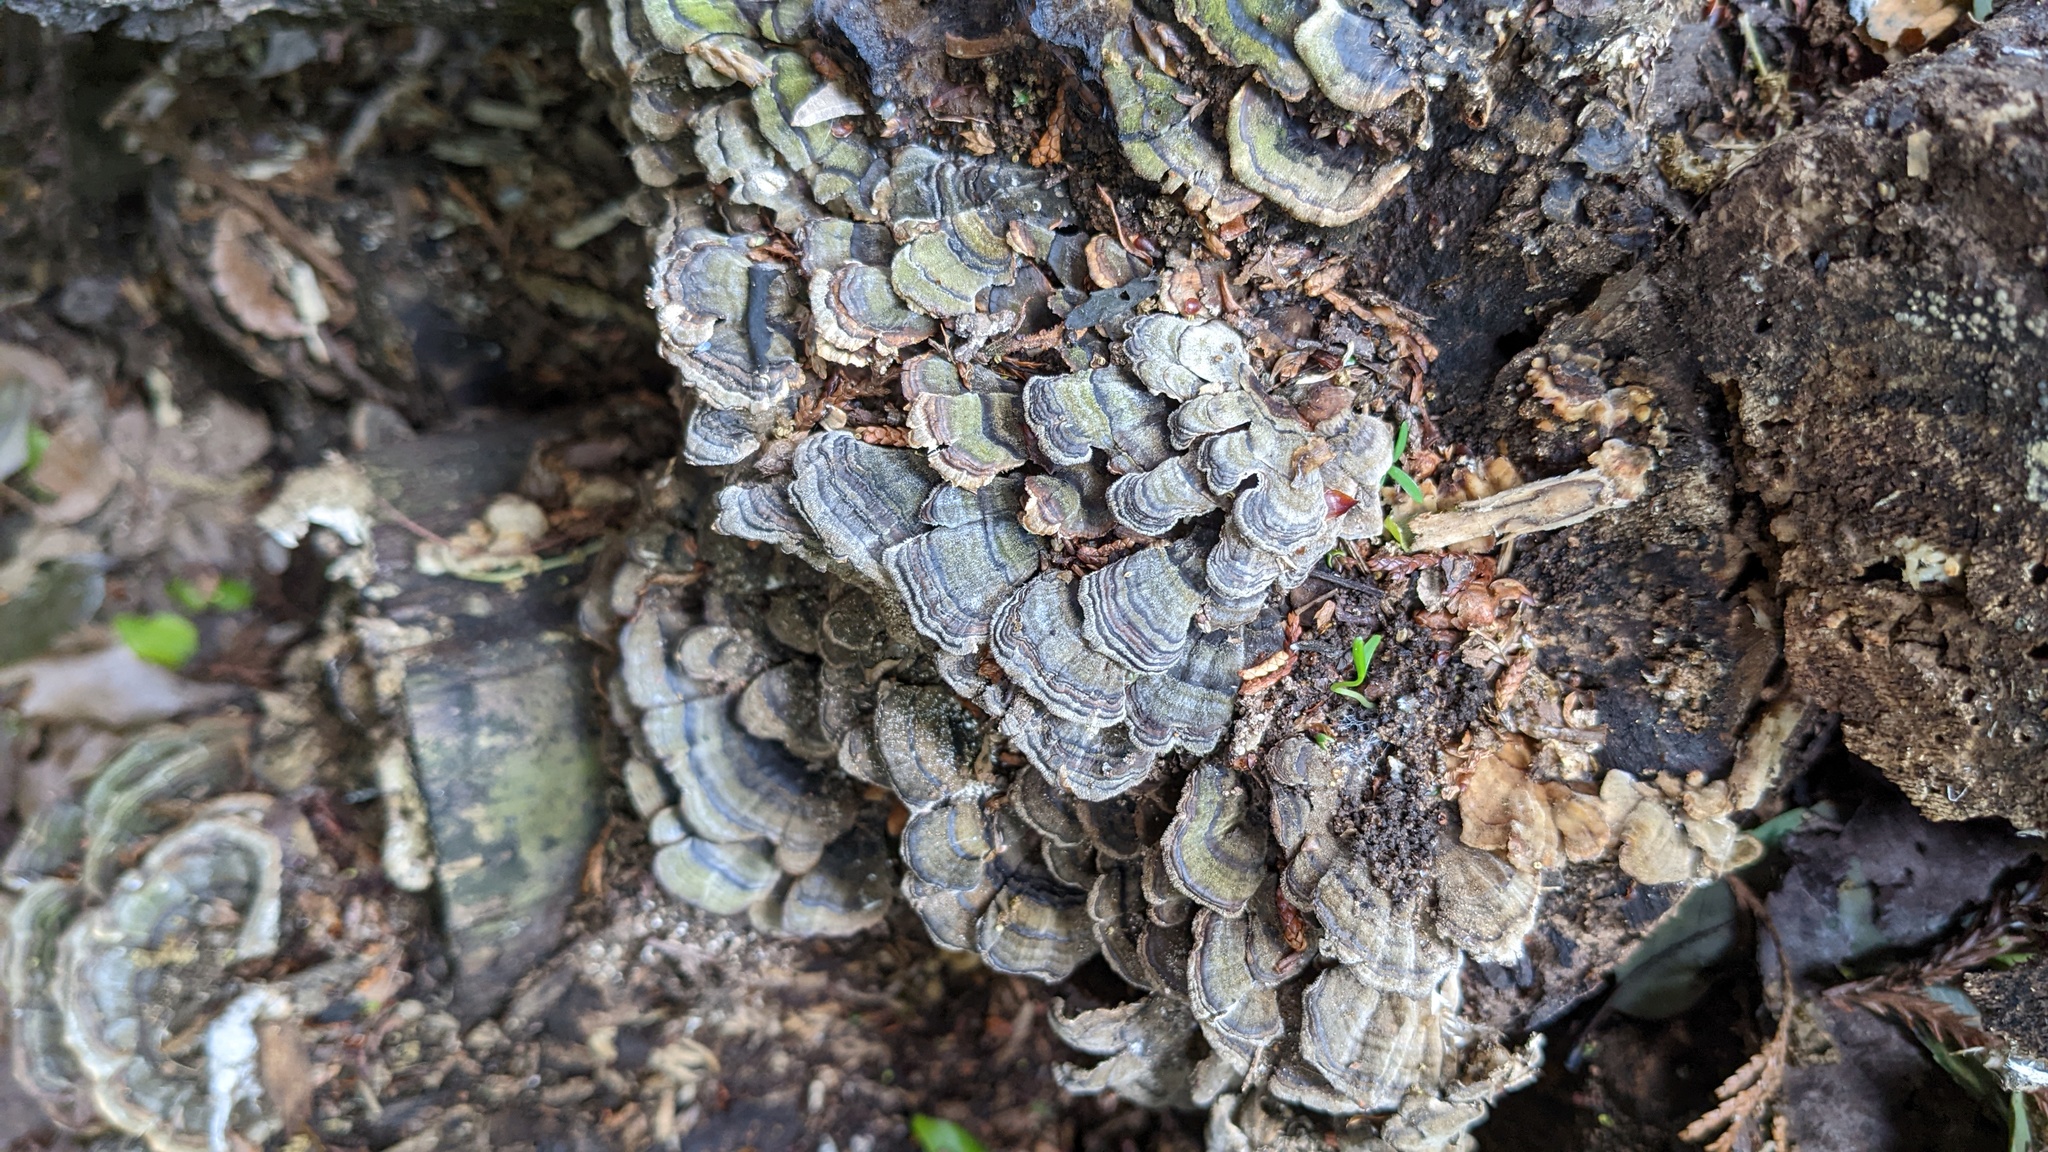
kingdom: Fungi
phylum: Basidiomycota
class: Agaricomycetes
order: Polyporales
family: Polyporaceae
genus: Trametes
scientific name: Trametes versicolor
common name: Turkeytail
